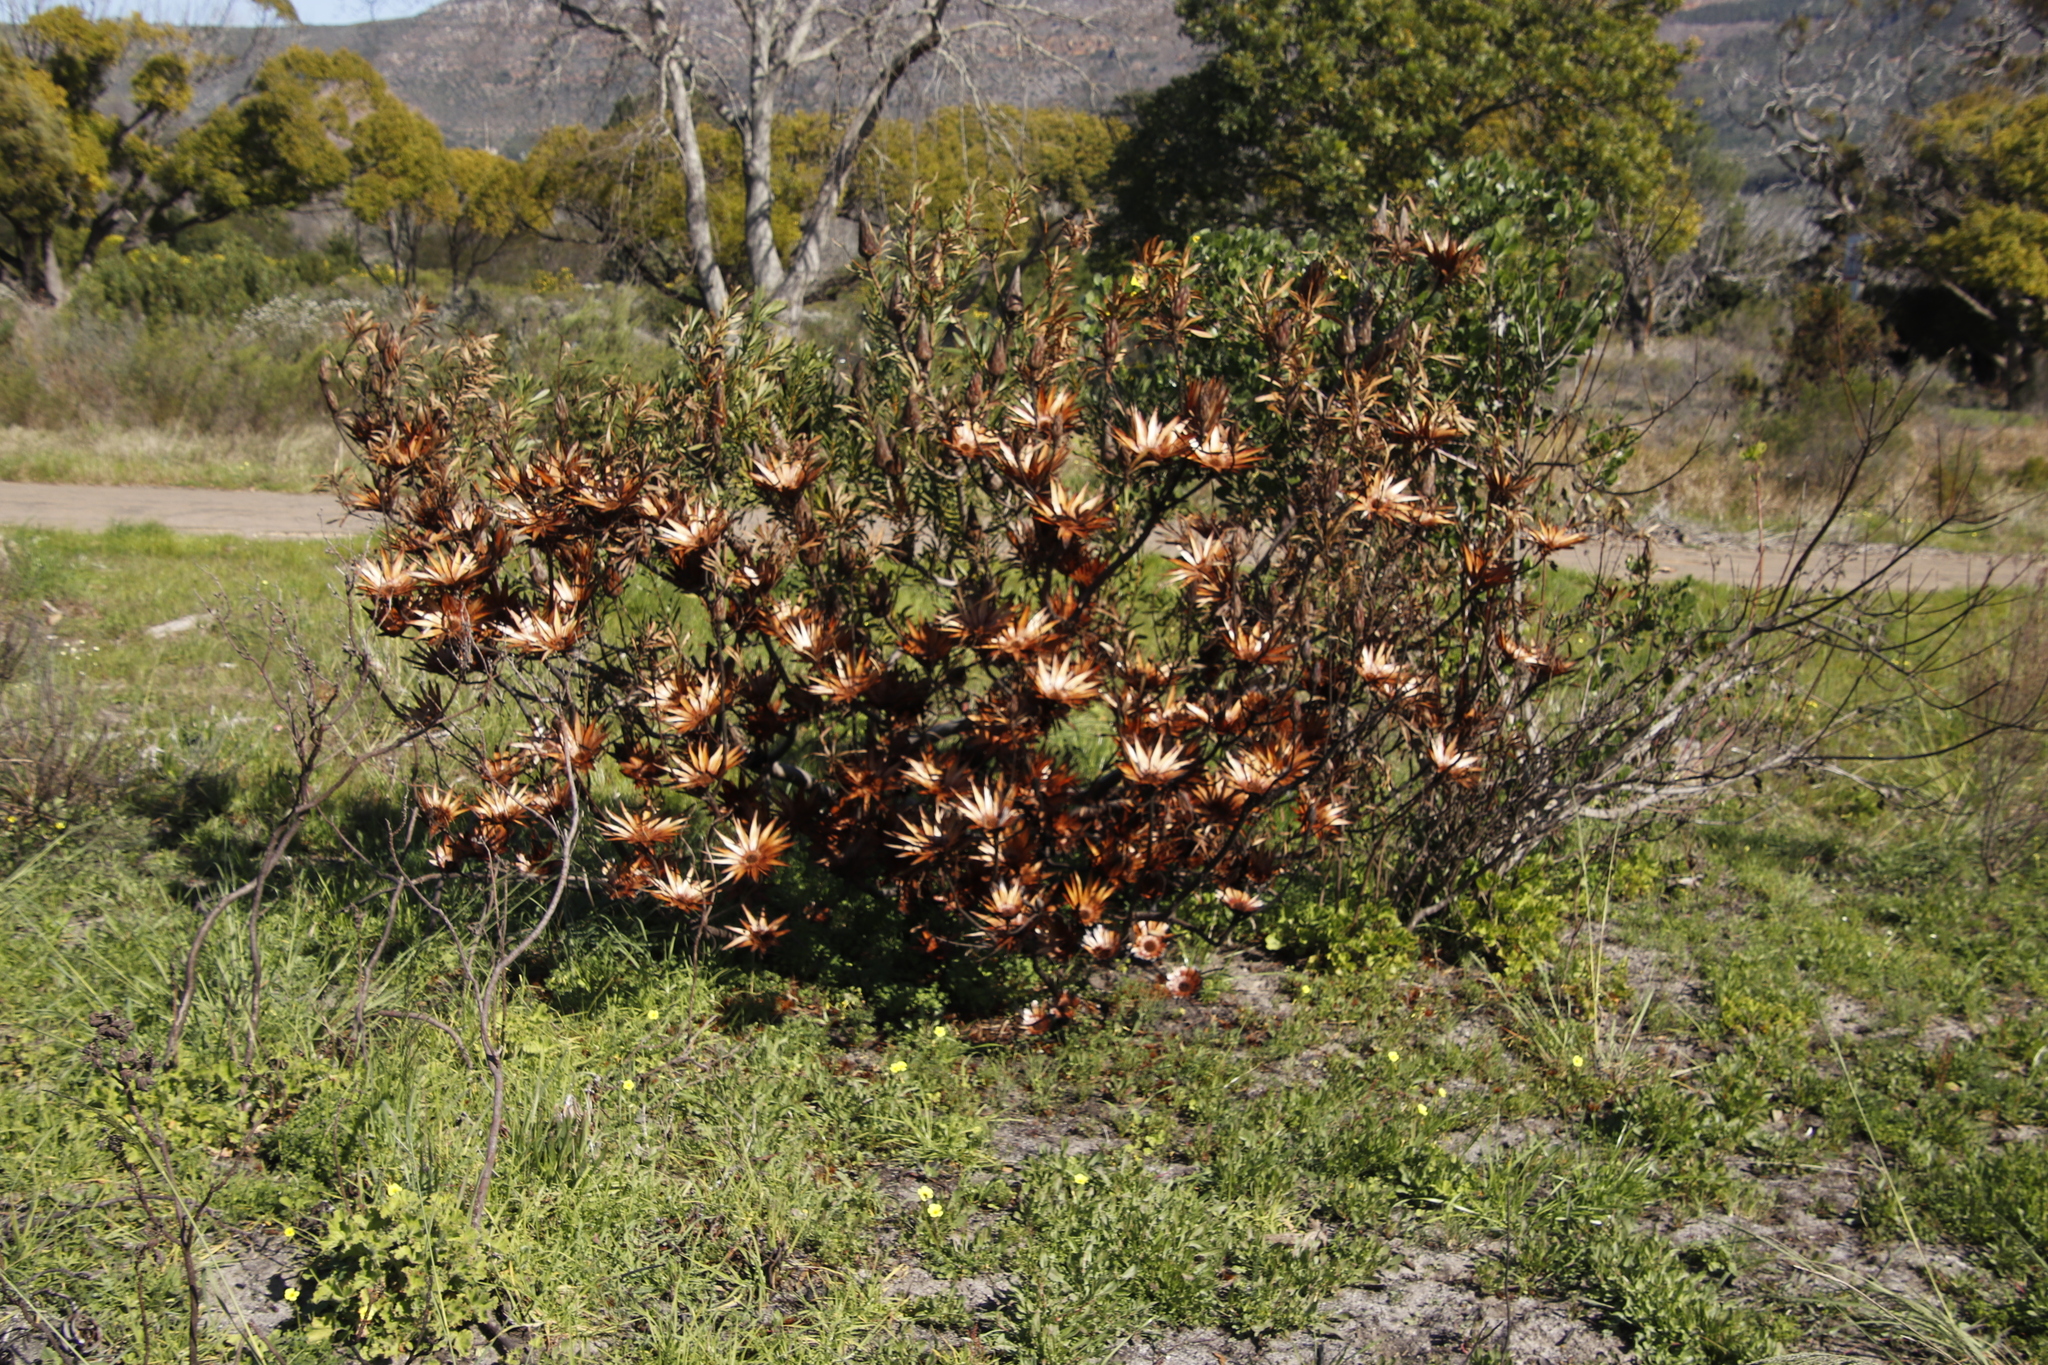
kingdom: Plantae
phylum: Tracheophyta
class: Magnoliopsida
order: Proteales
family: Proteaceae
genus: Protea
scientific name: Protea repens
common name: Sugarbush
